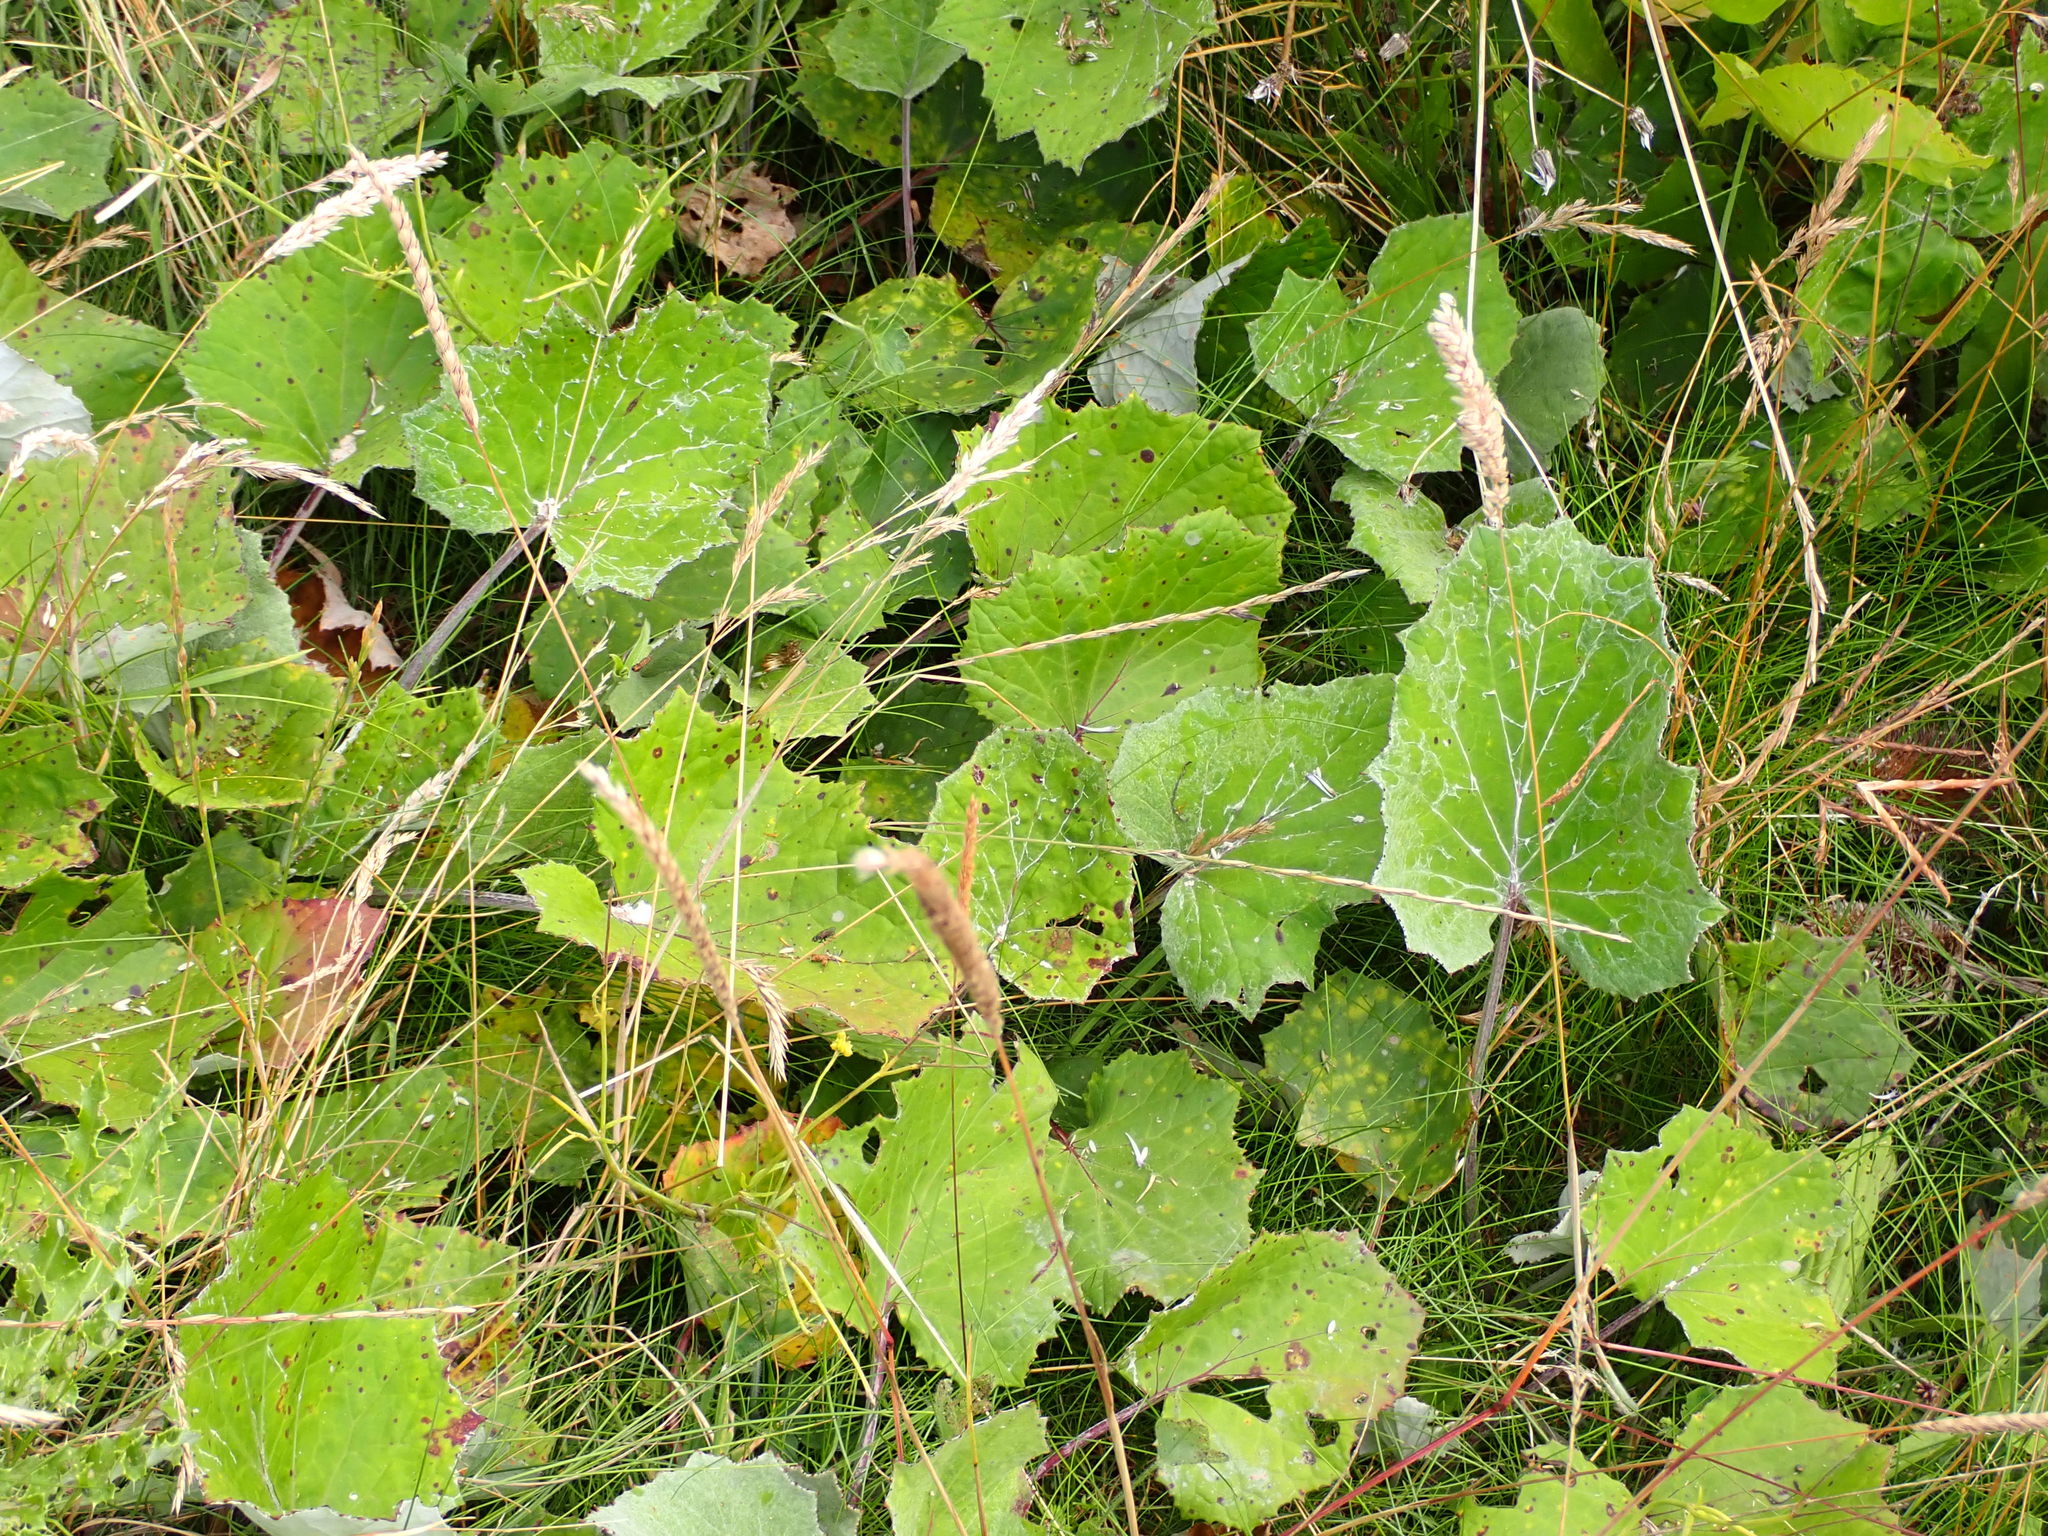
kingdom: Plantae
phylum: Tracheophyta
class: Magnoliopsida
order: Asterales
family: Asteraceae
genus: Tussilago
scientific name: Tussilago farfara
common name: Coltsfoot
